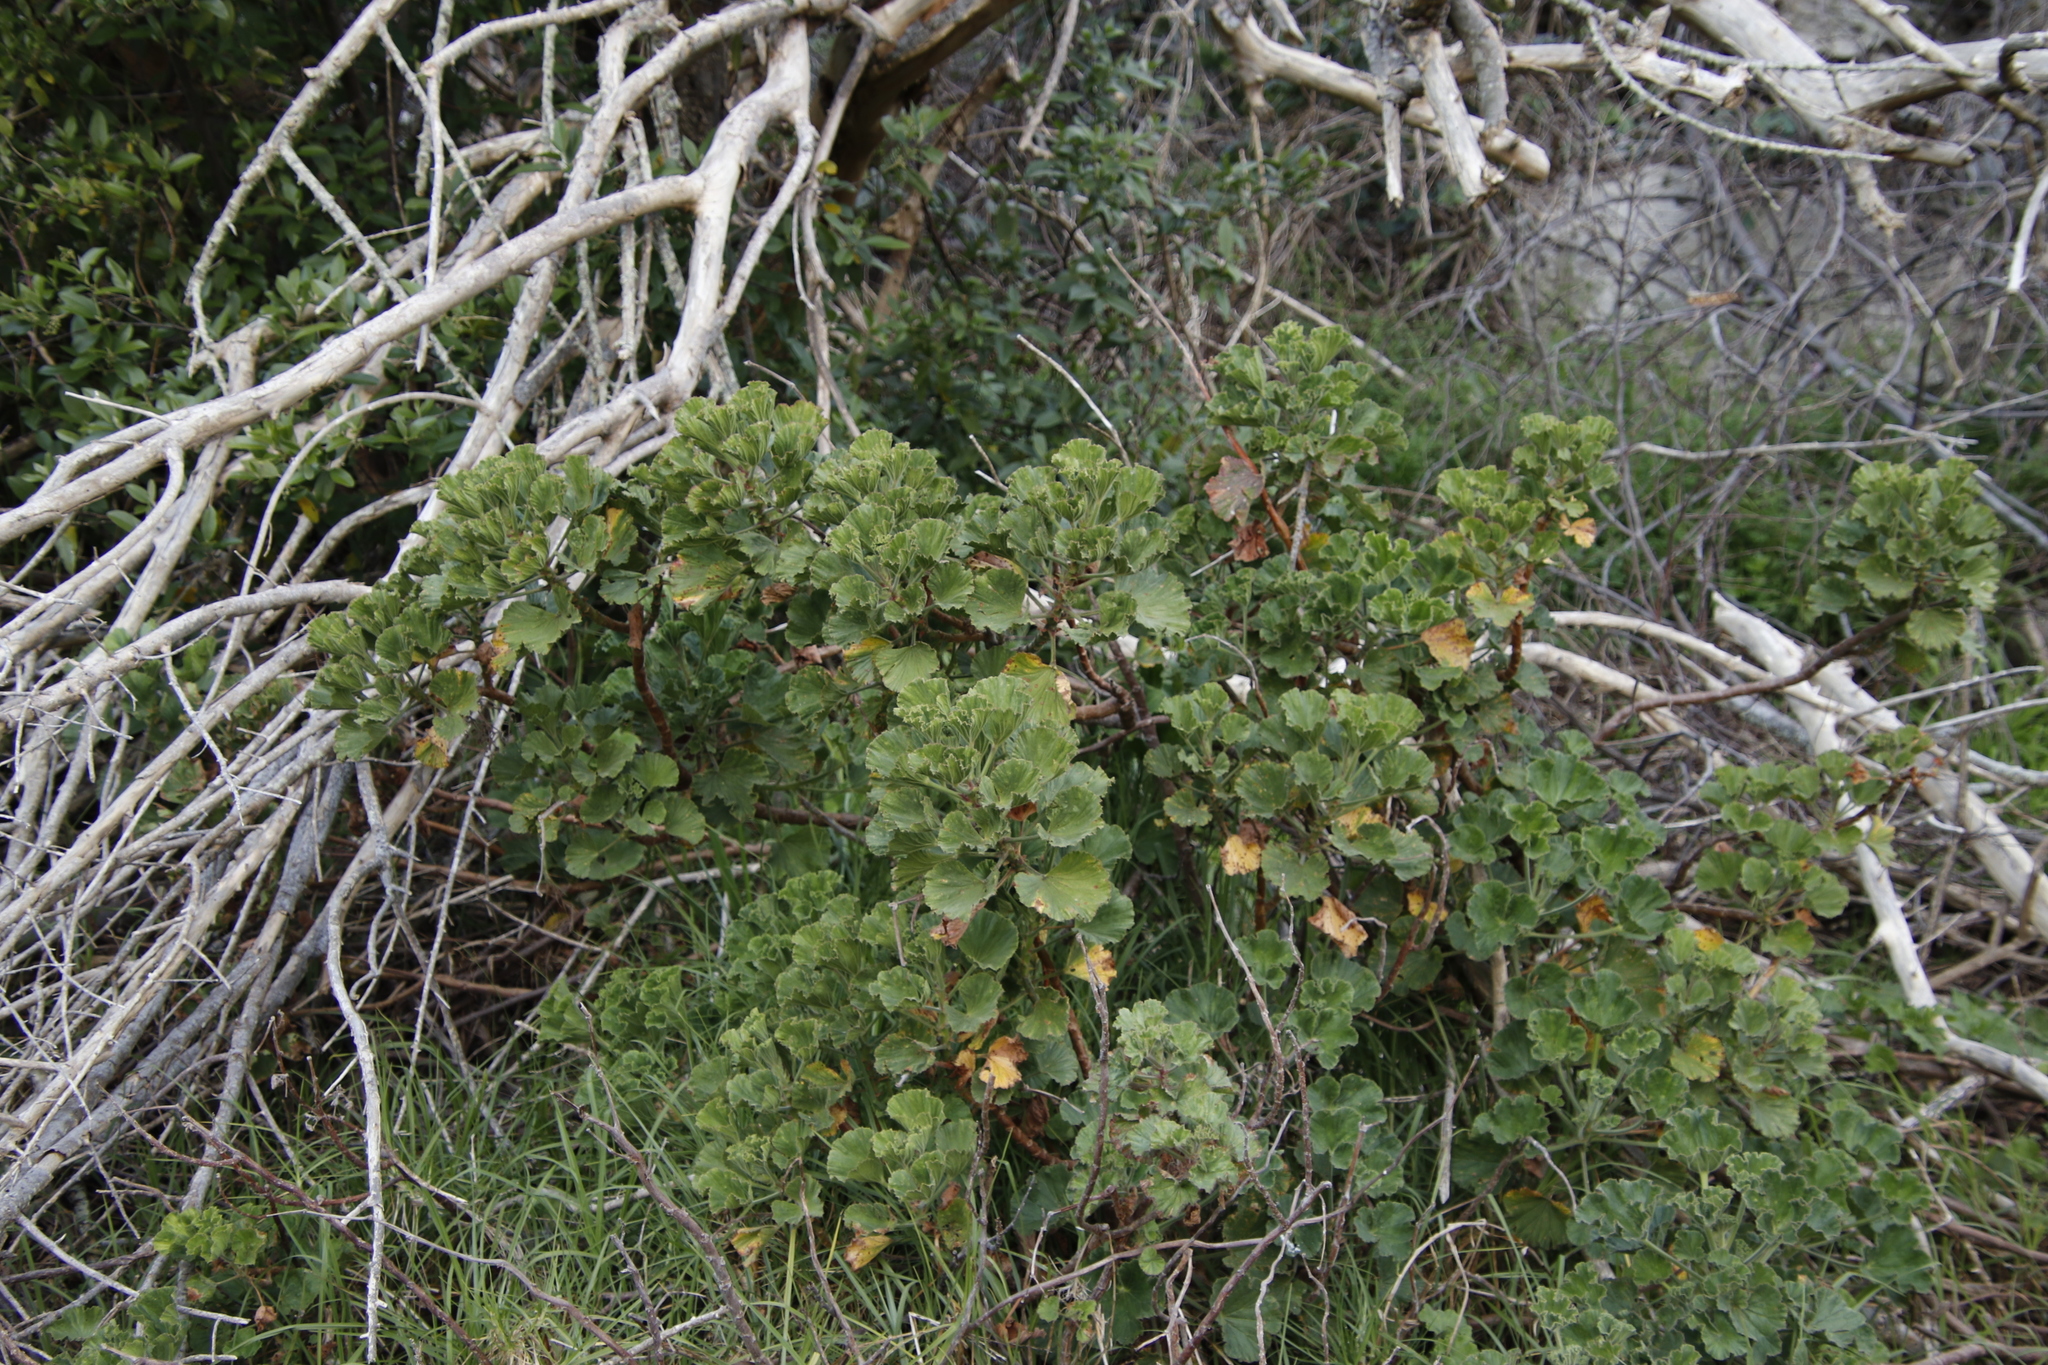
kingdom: Plantae
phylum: Tracheophyta
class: Magnoliopsida
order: Geraniales
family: Geraniaceae
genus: Pelargonium
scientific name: Pelargonium cucullatum
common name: Tree pelargonium
